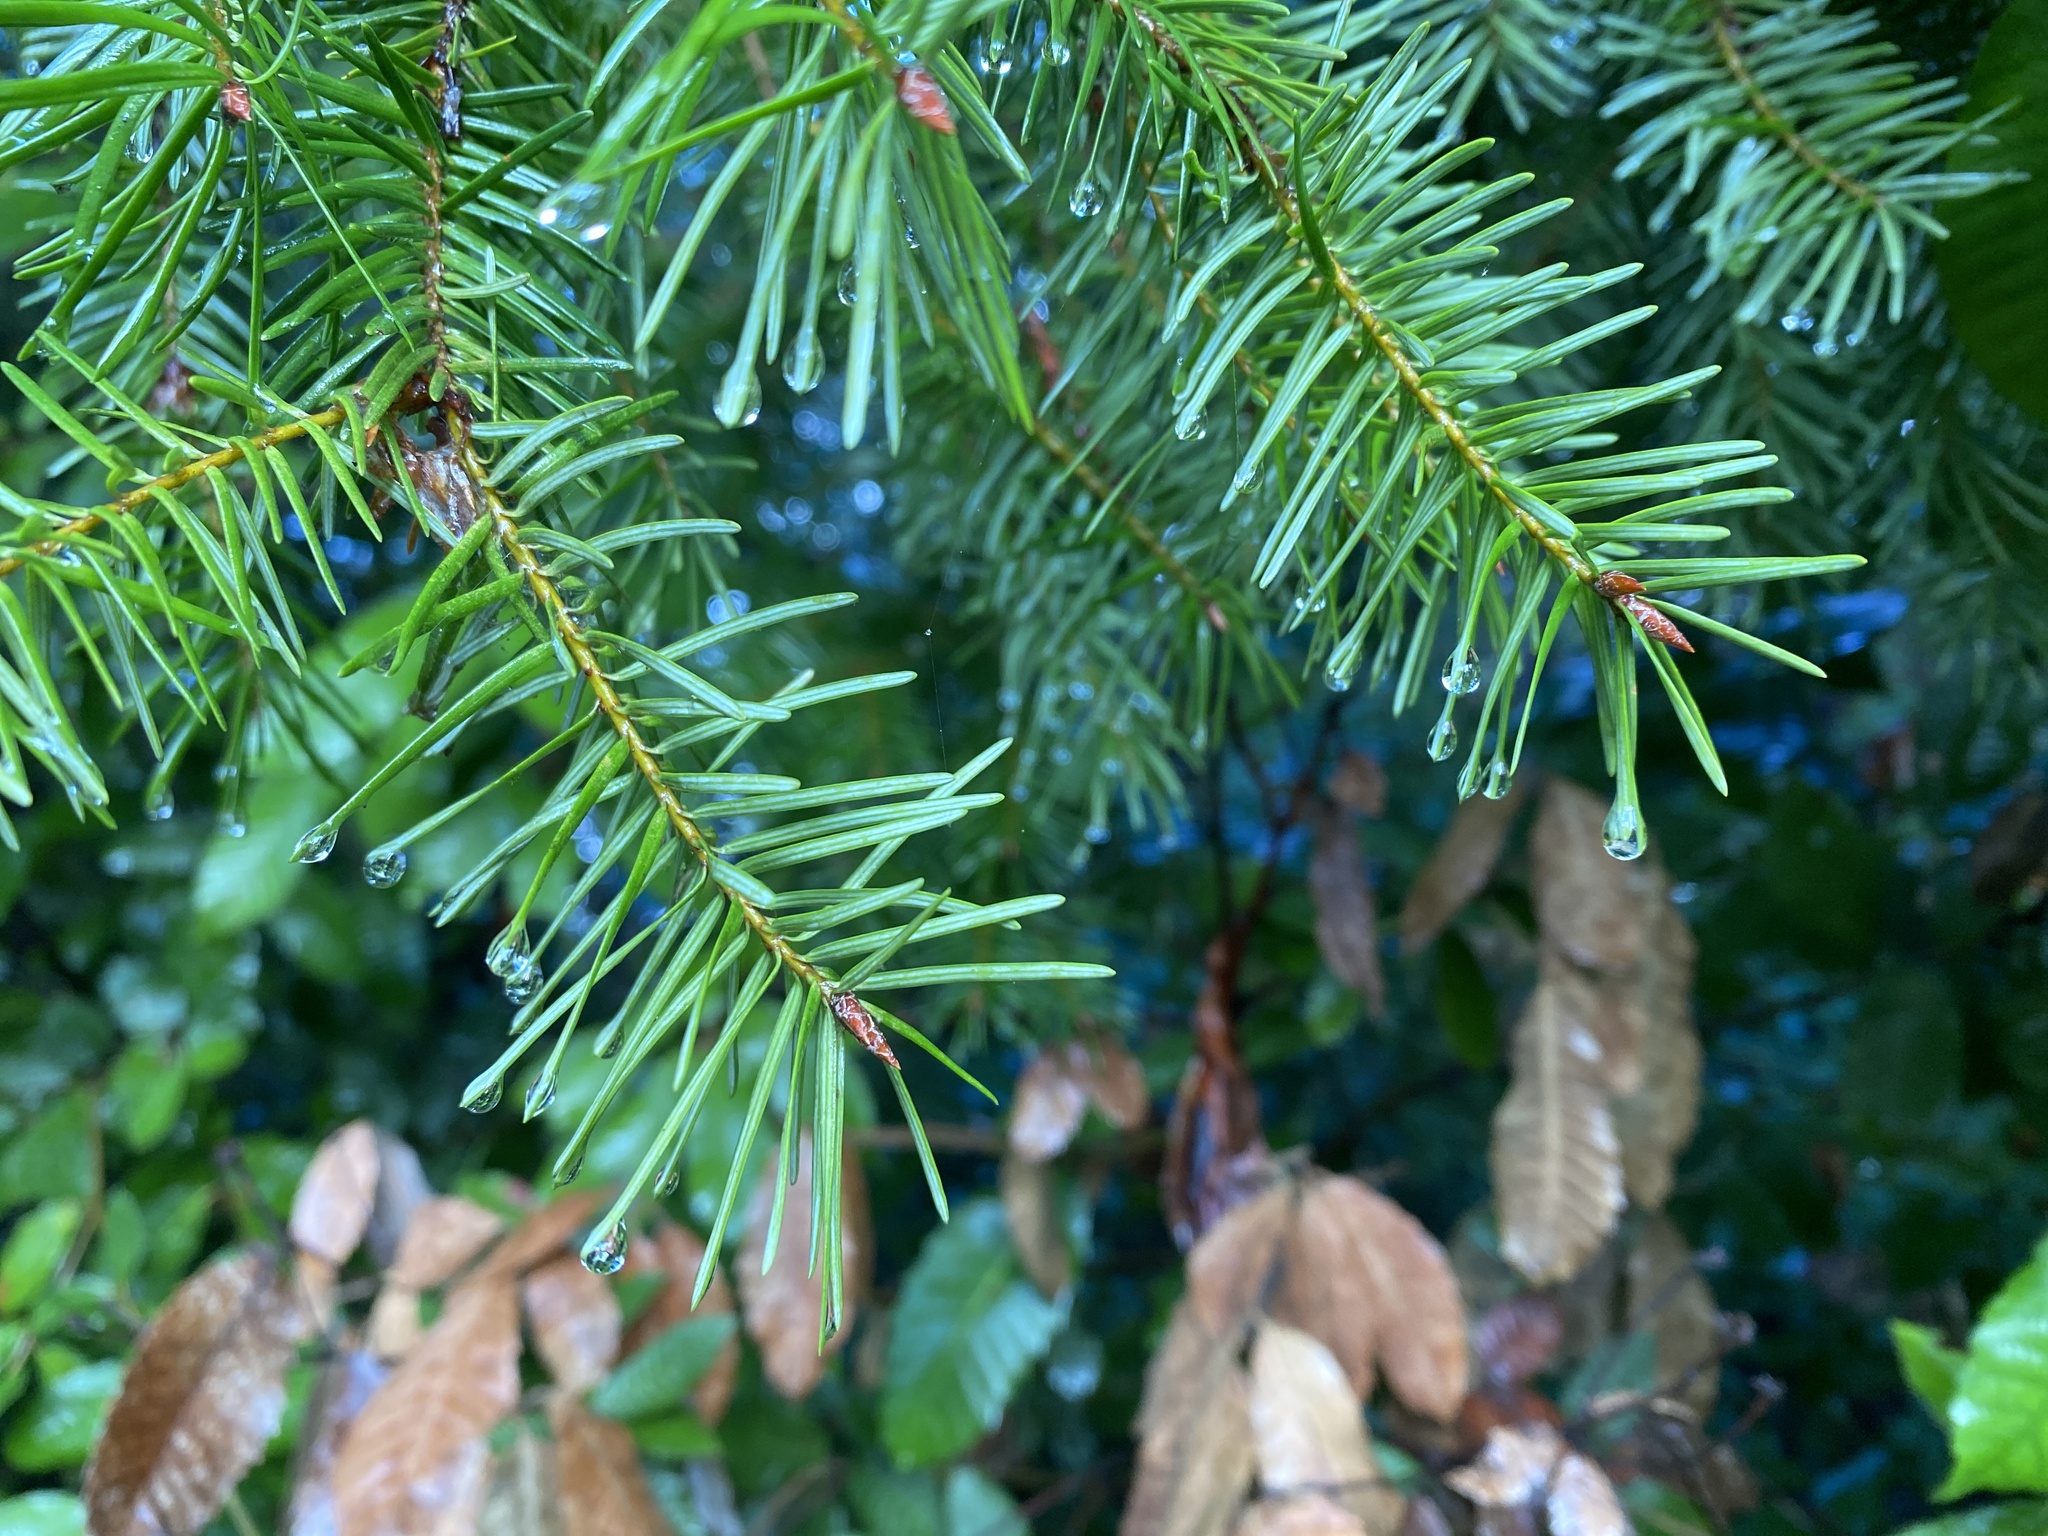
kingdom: Plantae
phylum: Tracheophyta
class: Pinopsida
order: Pinales
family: Pinaceae
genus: Pseudotsuga
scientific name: Pseudotsuga menziesii
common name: Douglas fir
